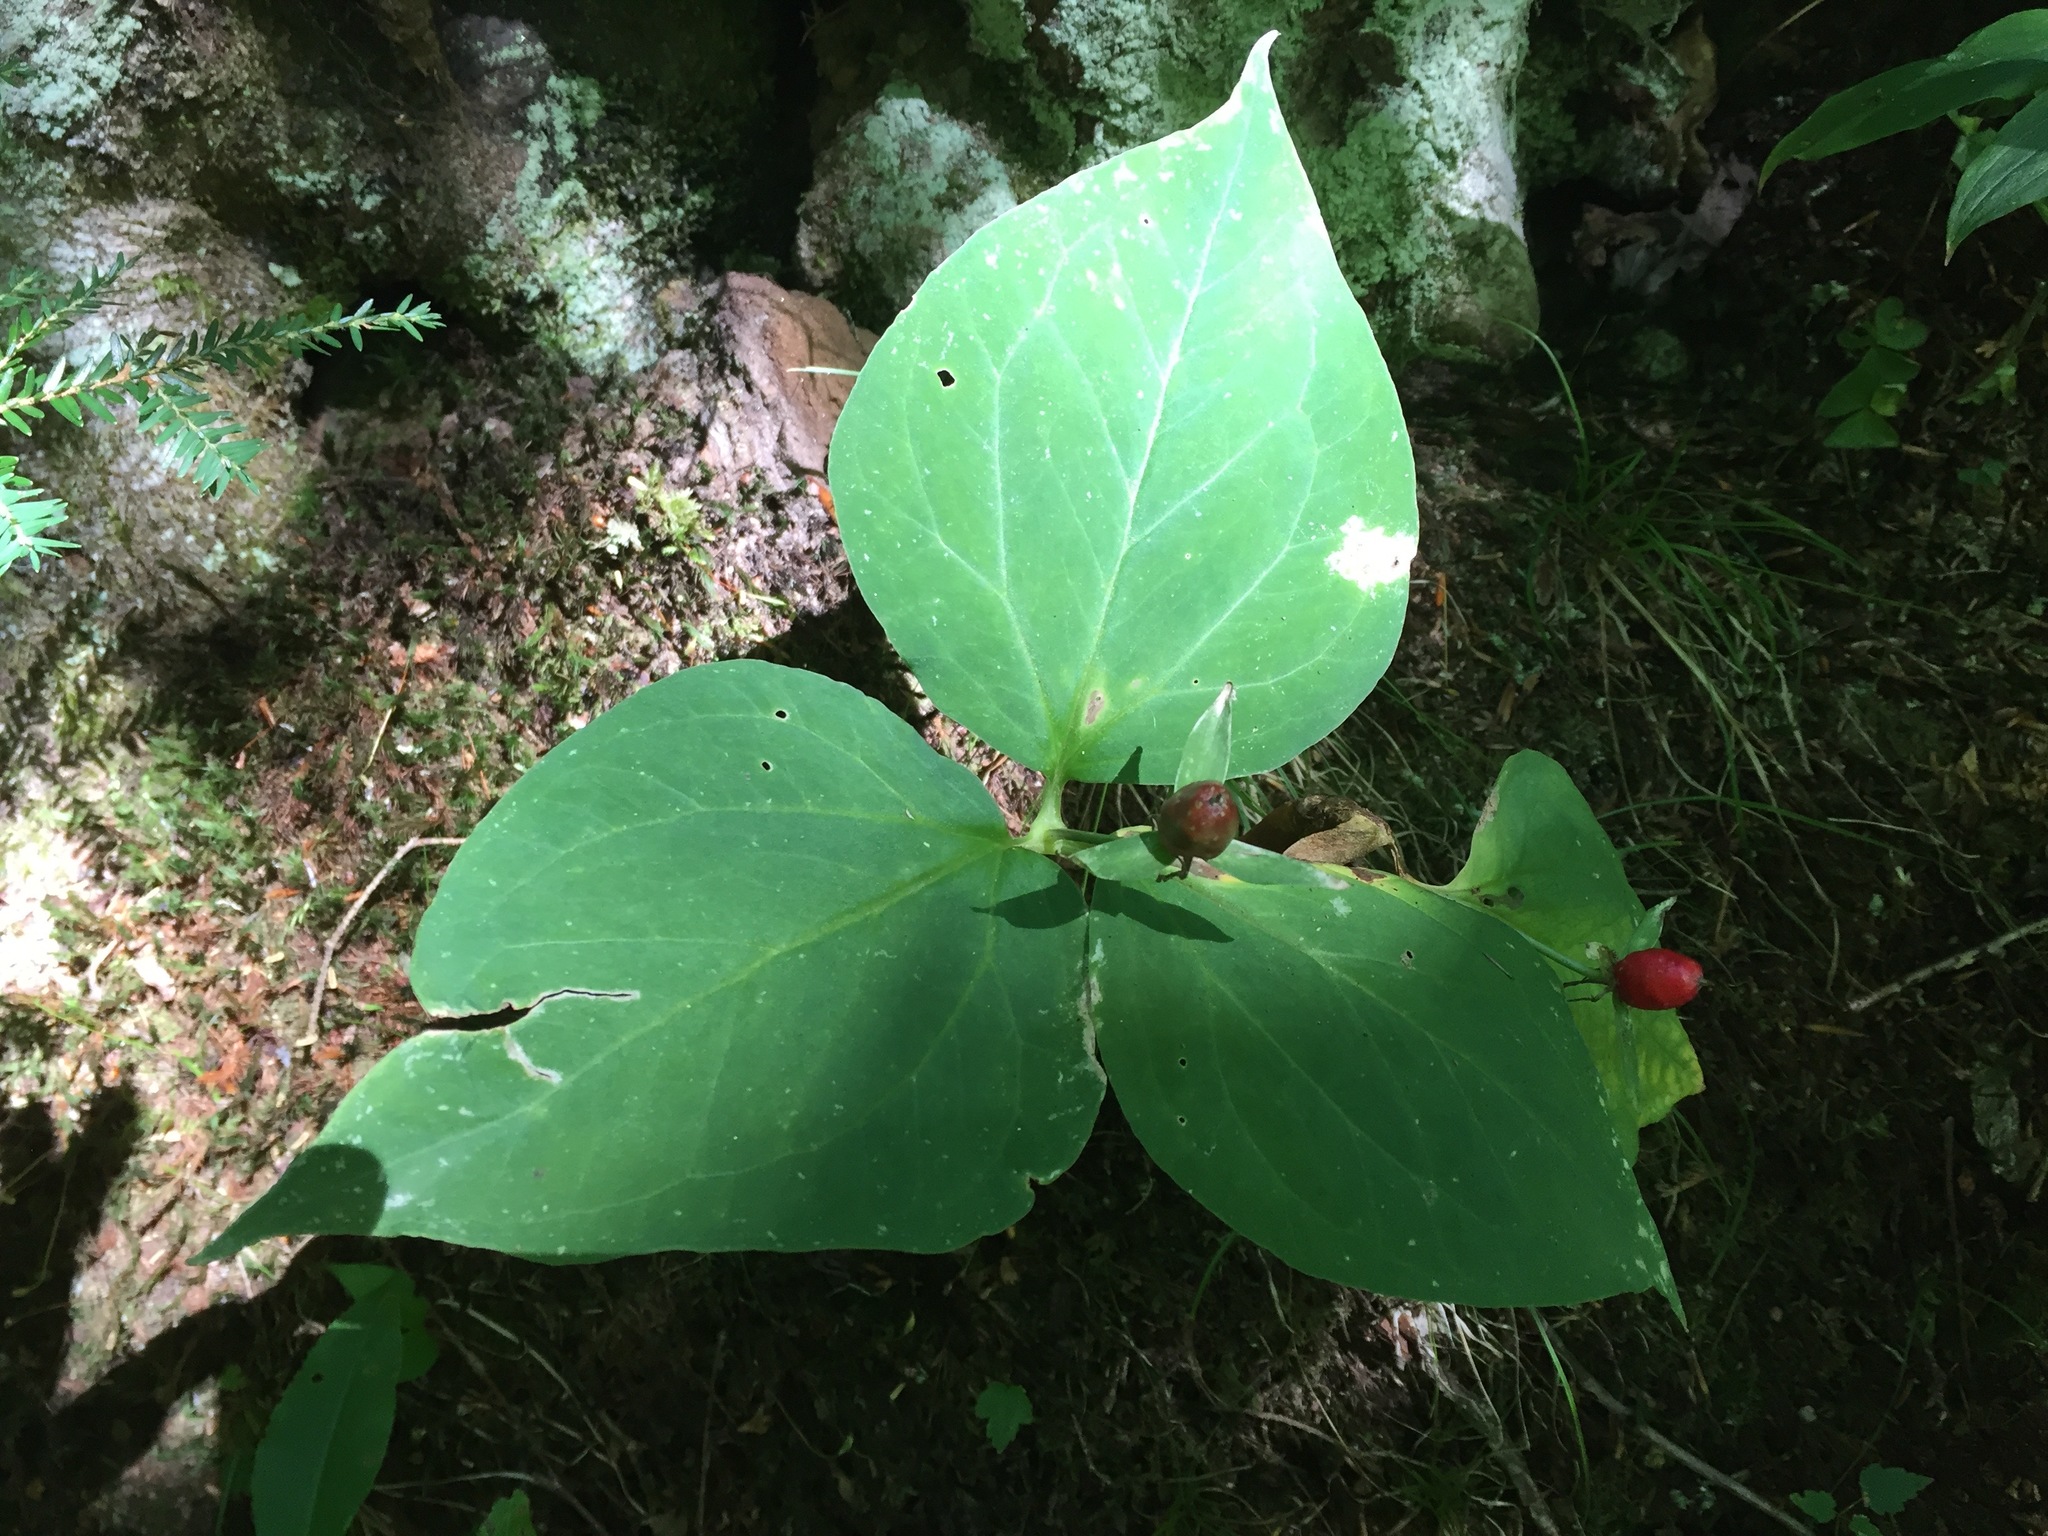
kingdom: Plantae
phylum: Tracheophyta
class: Liliopsida
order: Liliales
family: Melanthiaceae
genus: Trillium
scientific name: Trillium undulatum
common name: Paint trillium
